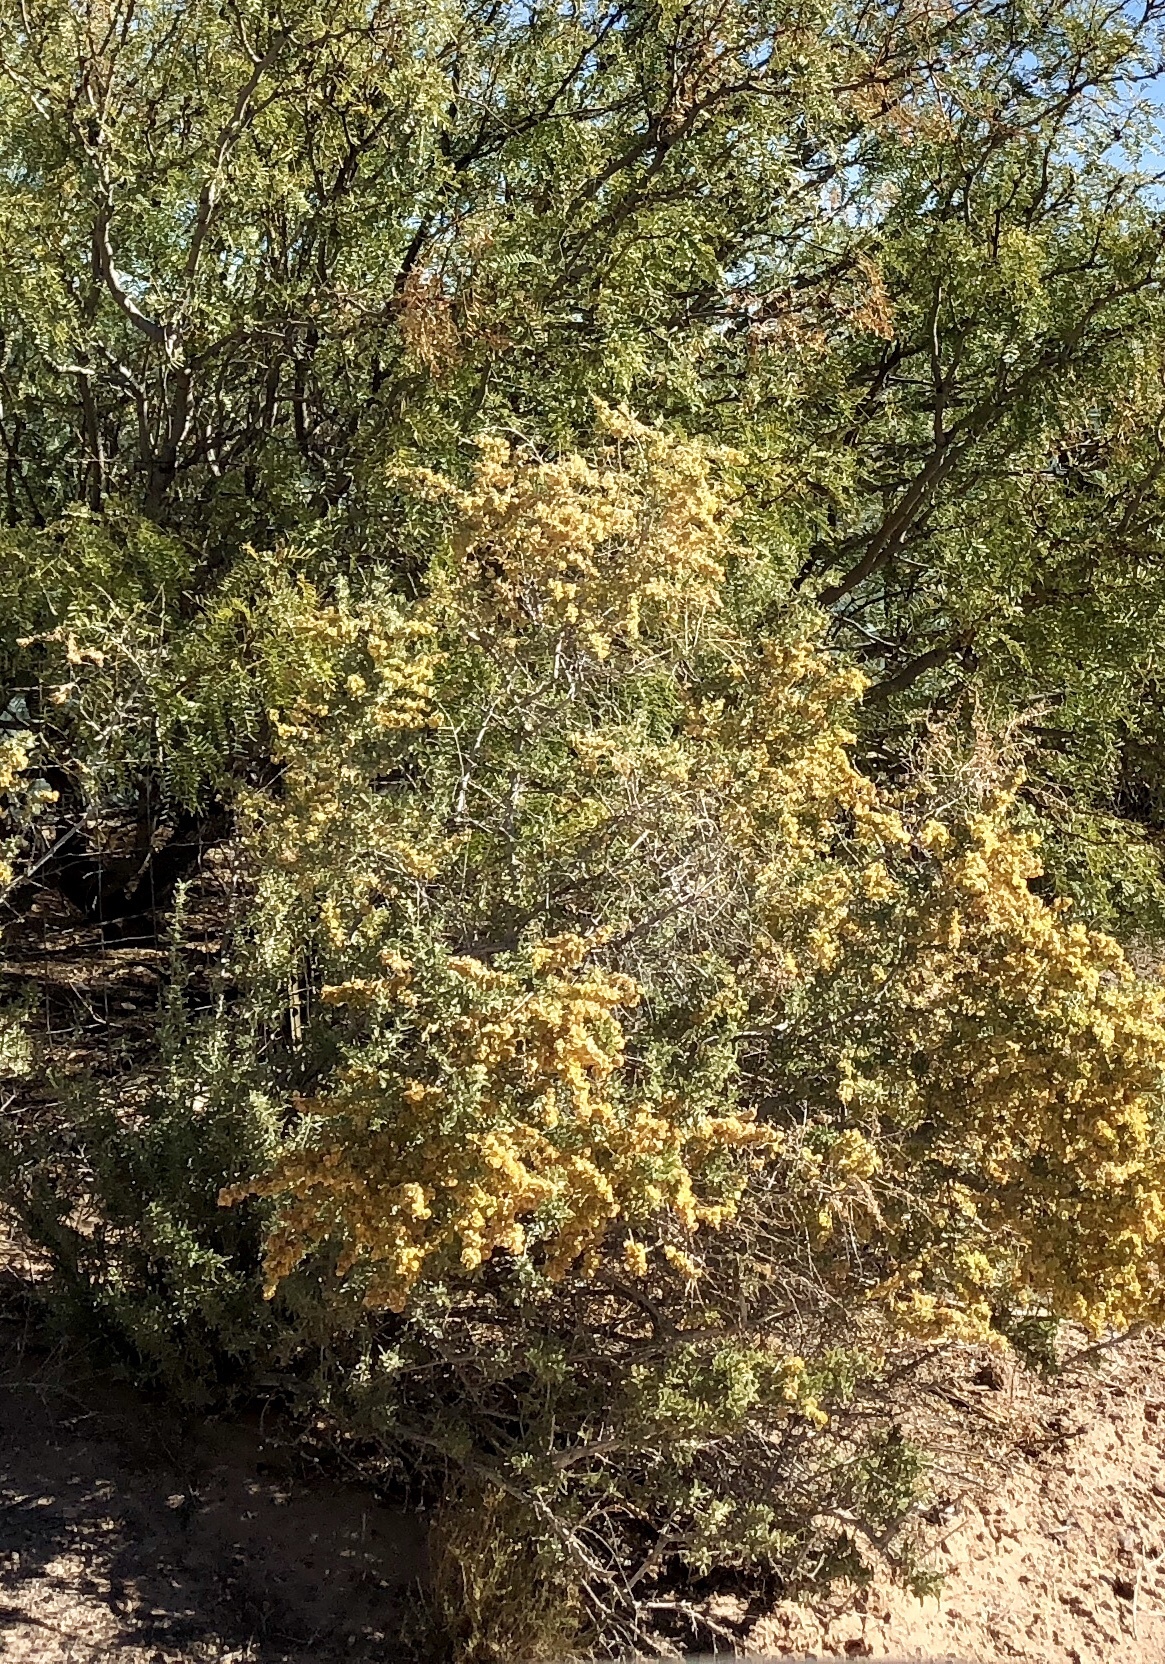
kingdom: Plantae
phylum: Tracheophyta
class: Magnoliopsida
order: Caryophyllales
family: Amaranthaceae
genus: Atriplex
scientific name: Atriplex canescens
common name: Four-wing saltbush
